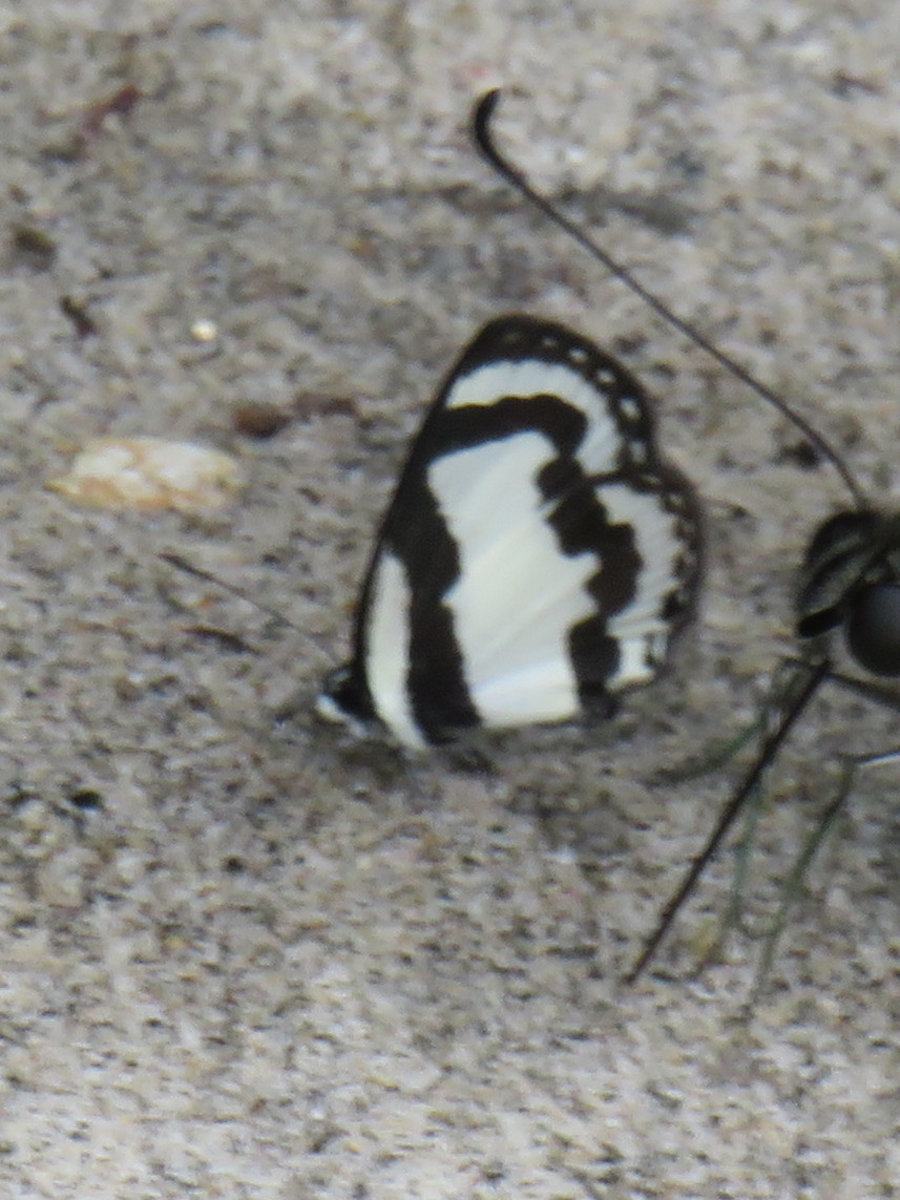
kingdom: Animalia
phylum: Arthropoda
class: Insecta
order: Lepidoptera
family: Lycaenidae
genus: Caleta
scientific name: Caleta roxus
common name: Straight pierrot
